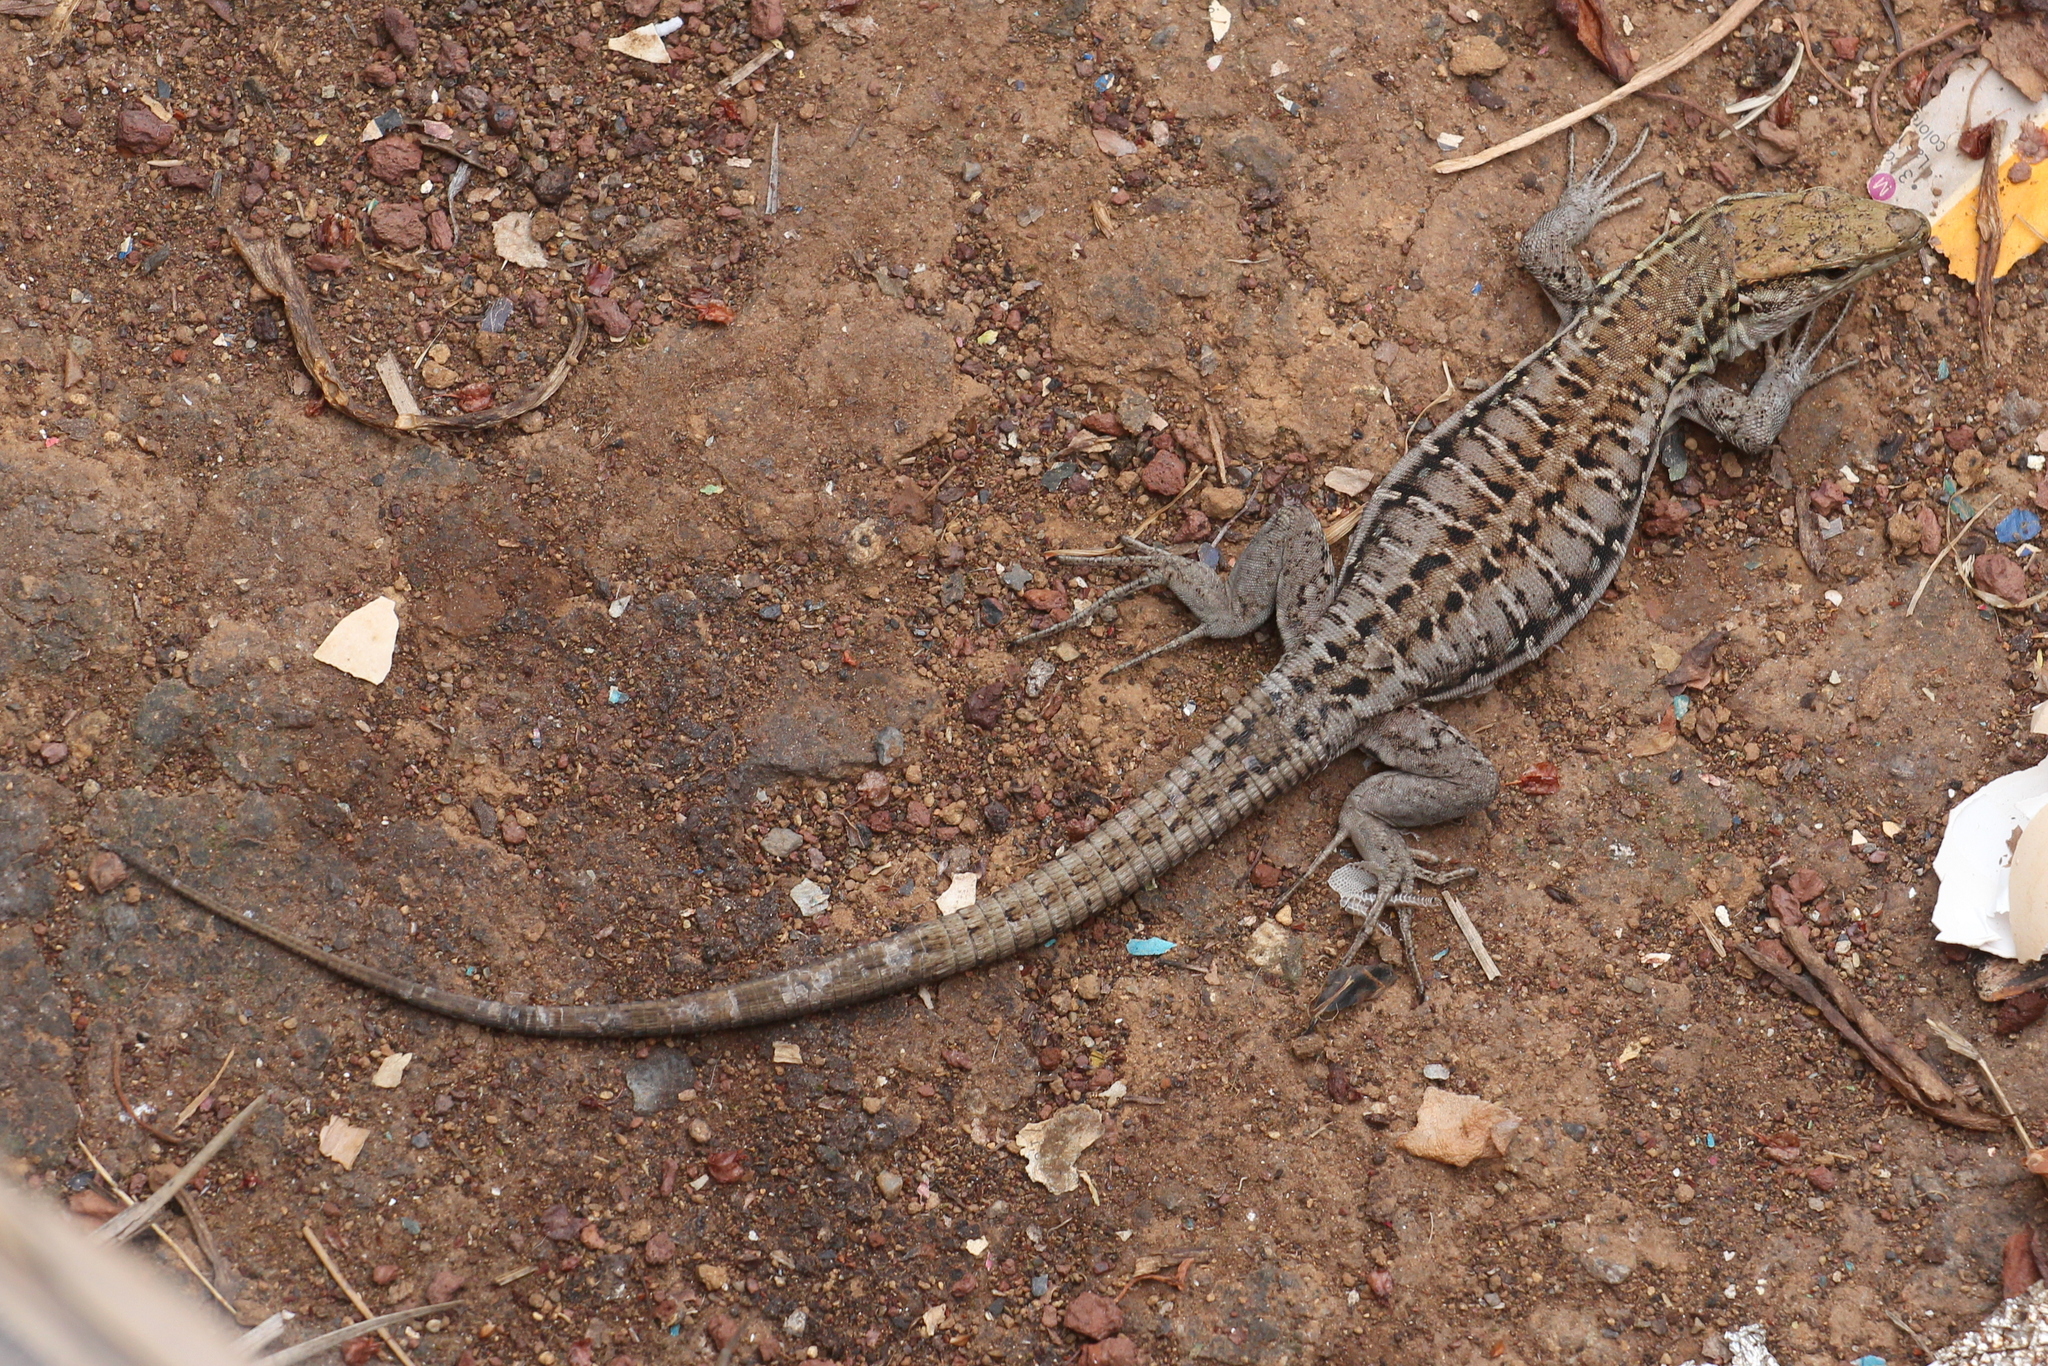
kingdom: Animalia
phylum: Chordata
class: Squamata
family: Lacertidae
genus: Gallotia
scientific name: Gallotia galloti
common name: Gallot's lizard
